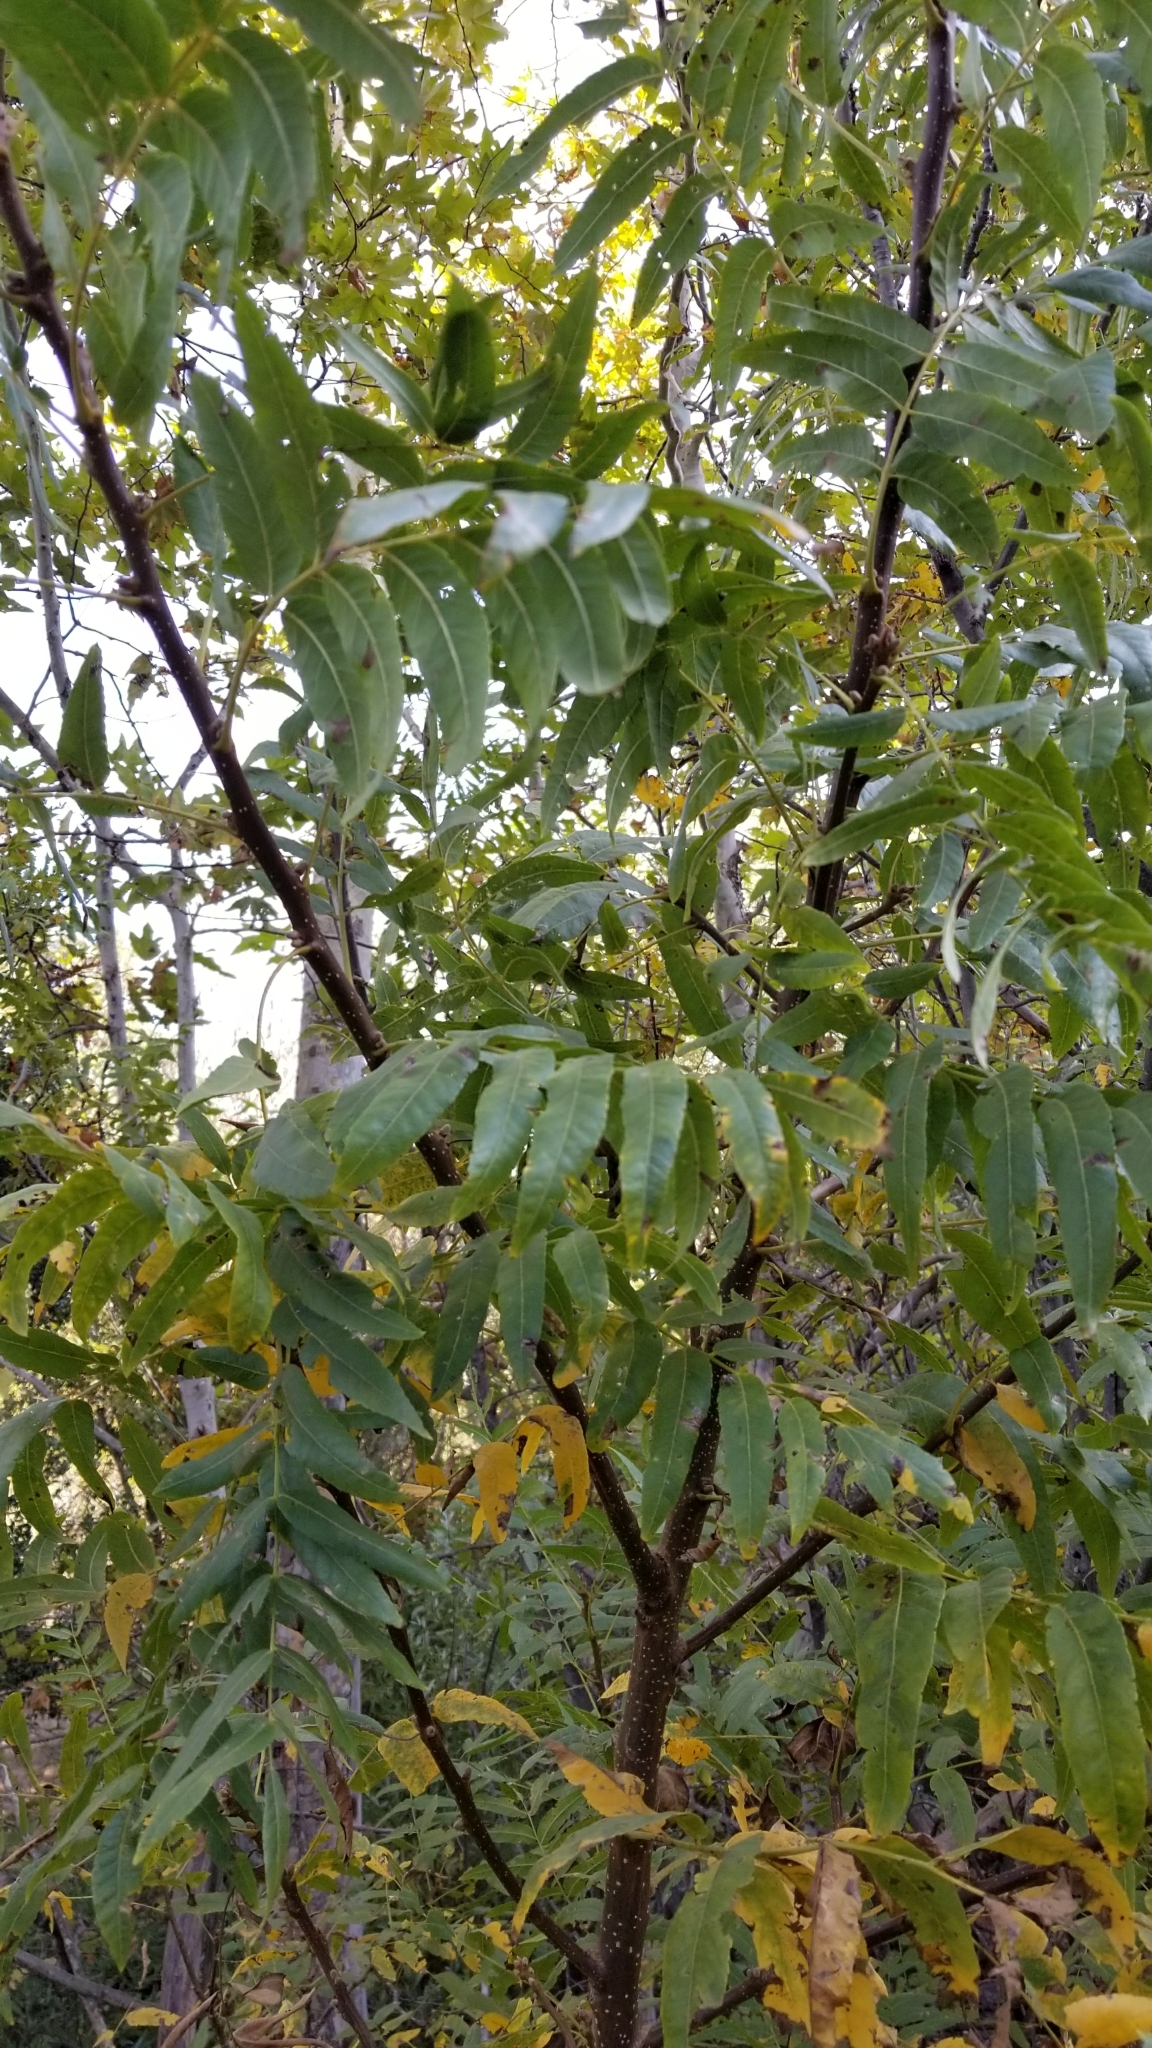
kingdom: Plantae
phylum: Tracheophyta
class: Magnoliopsida
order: Fagales
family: Juglandaceae
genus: Juglans
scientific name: Juglans californica
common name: Southern california black walnut
